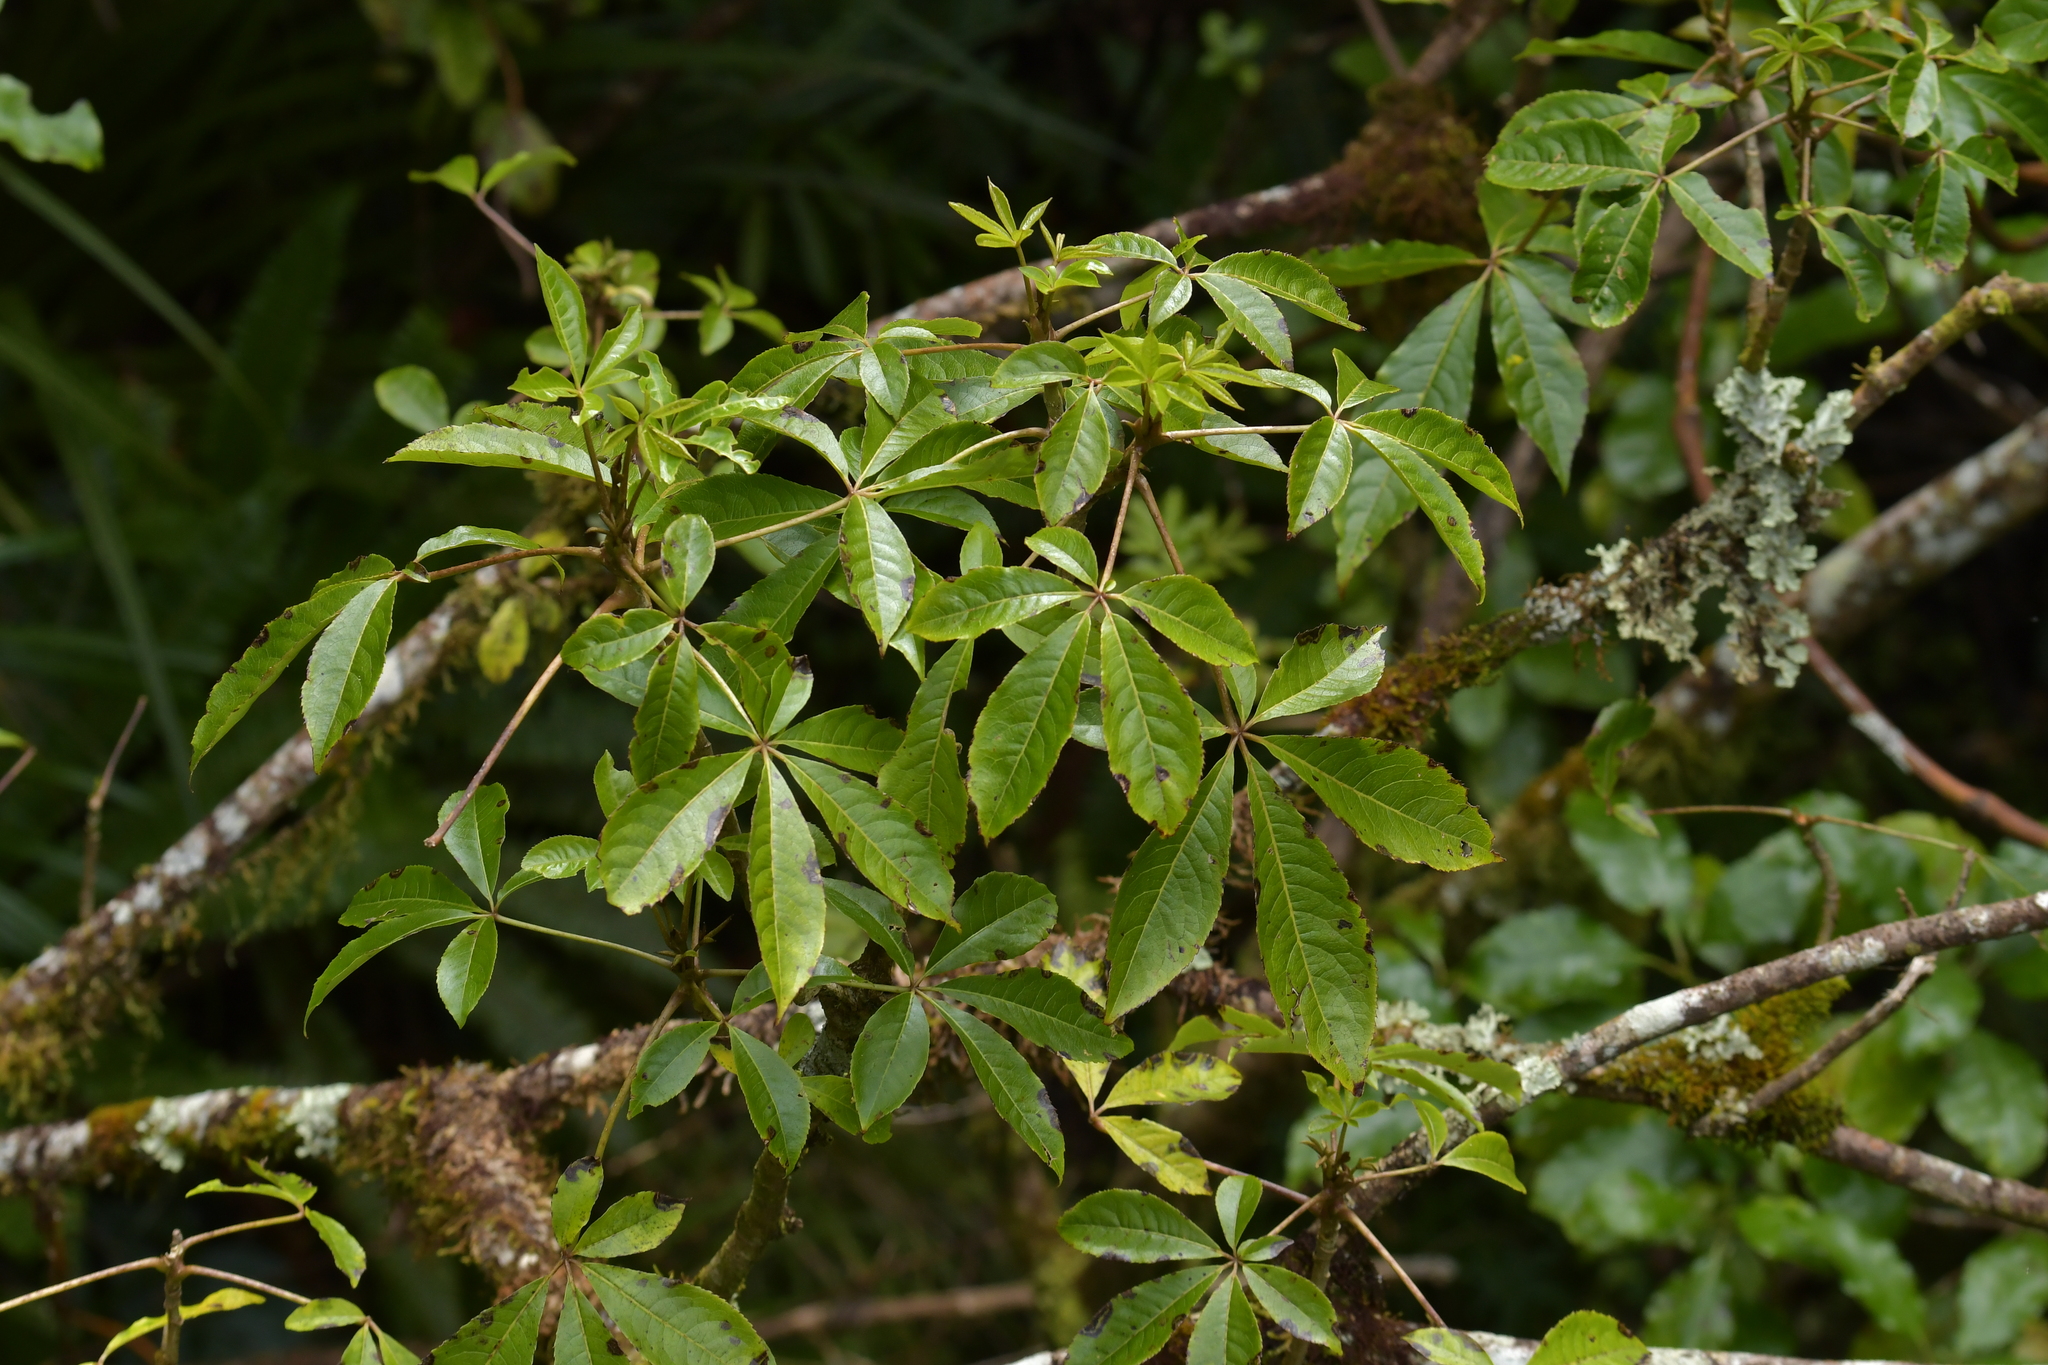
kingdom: Plantae
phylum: Tracheophyta
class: Magnoliopsida
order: Apiales
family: Araliaceae
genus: Schefflera
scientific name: Schefflera digitata
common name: Pate
